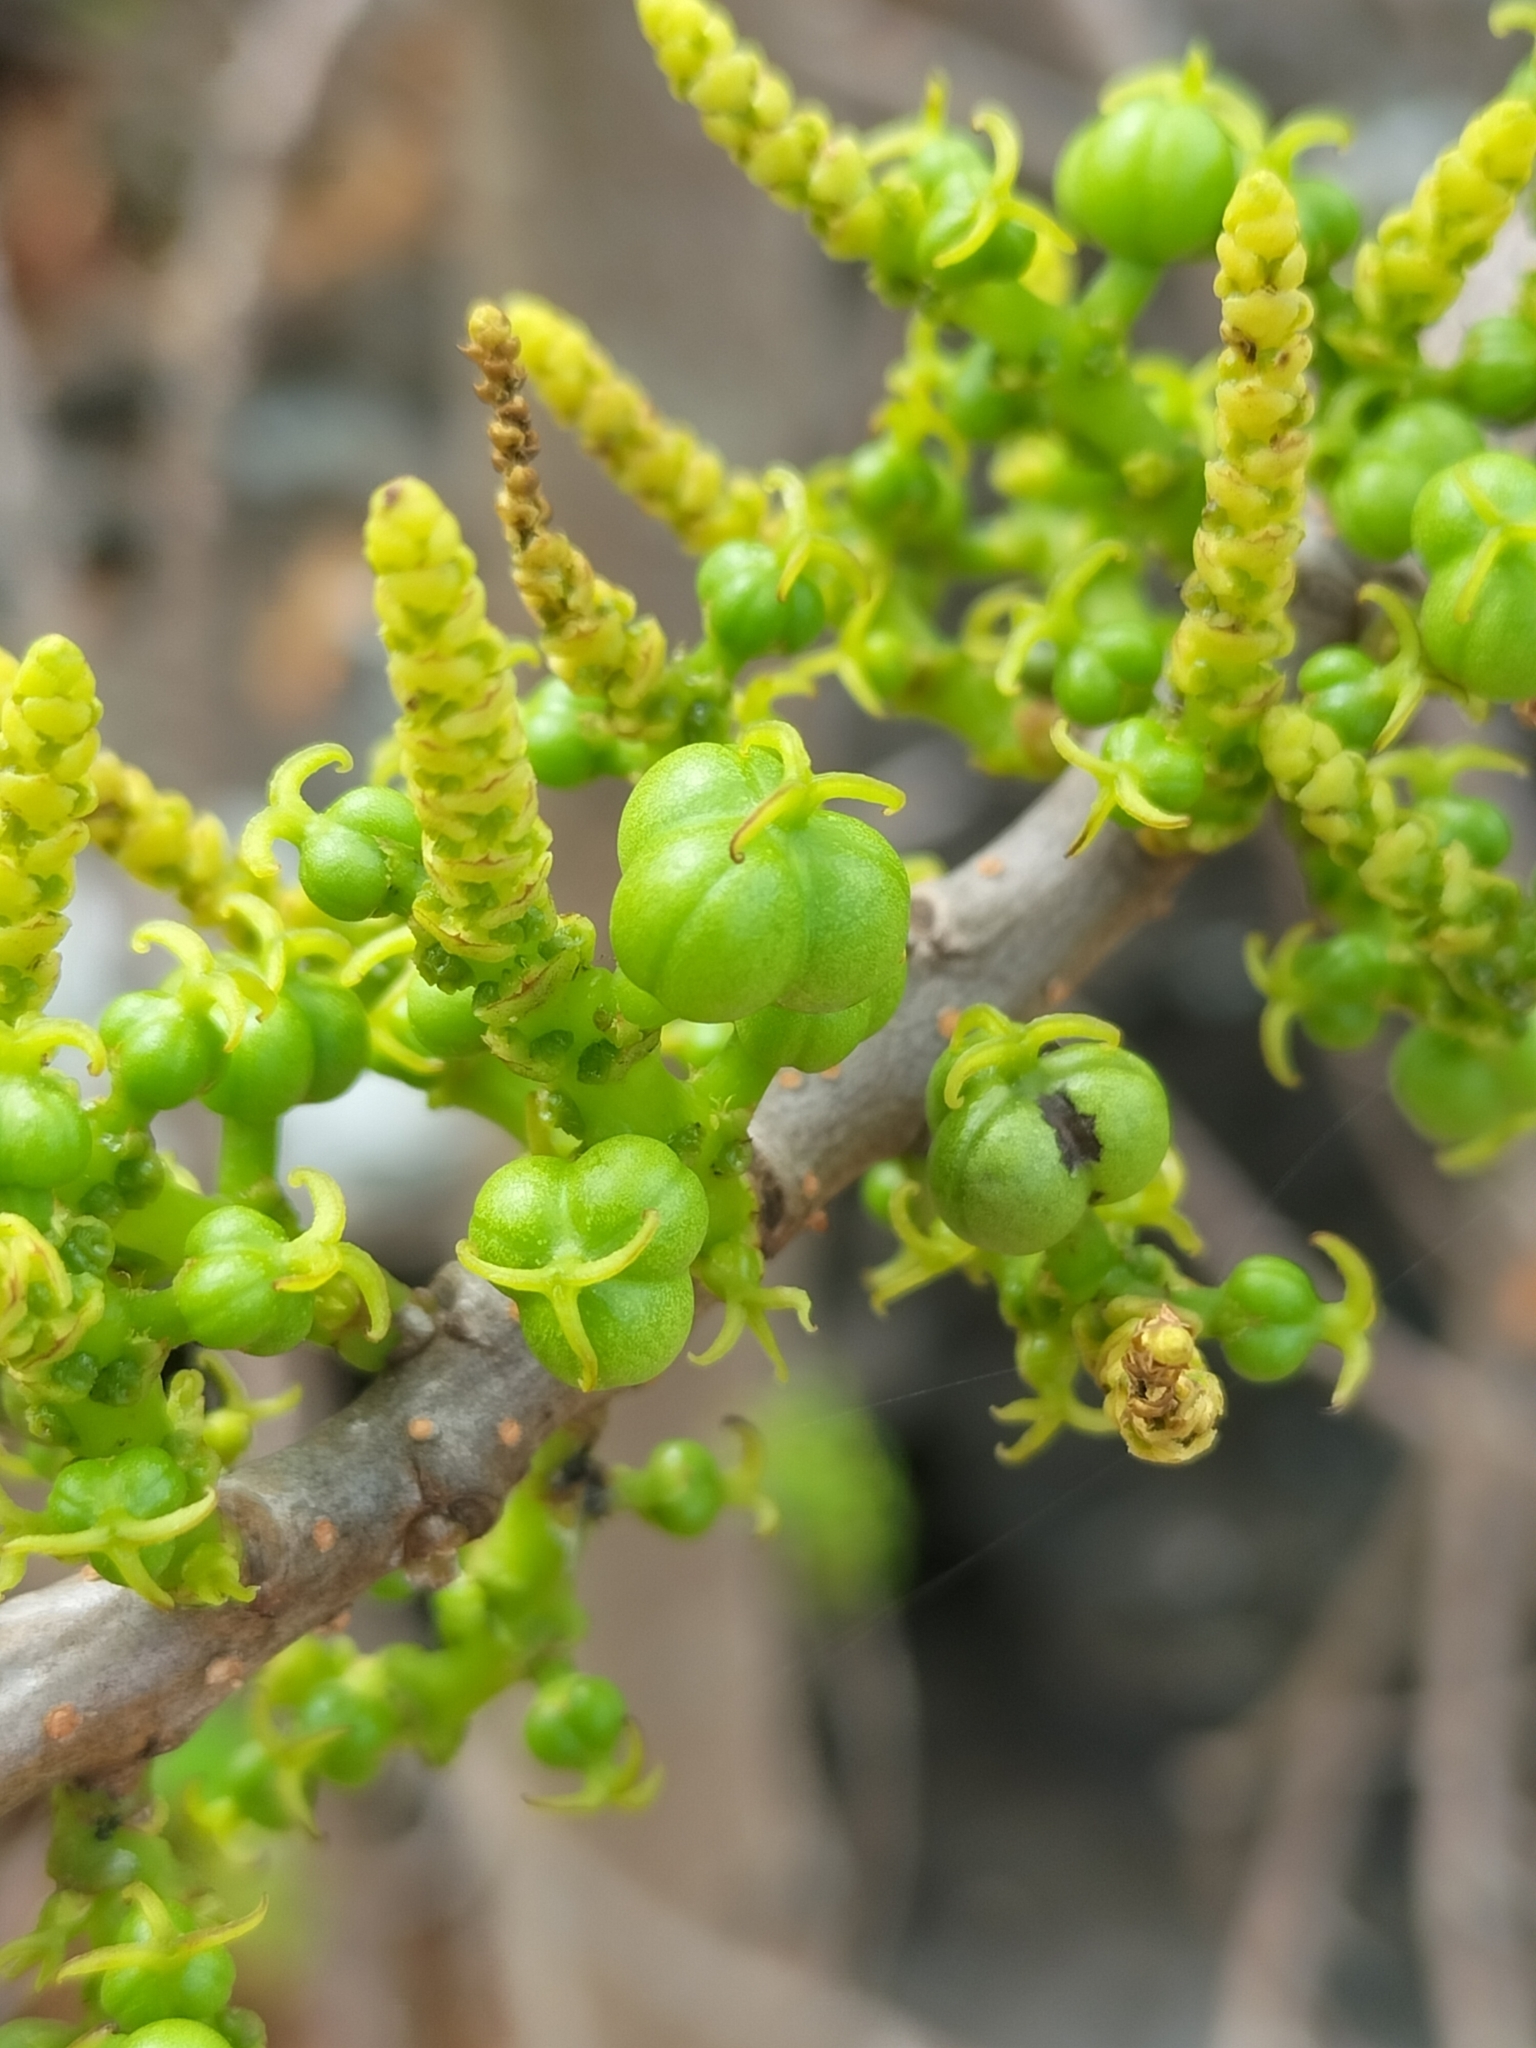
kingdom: Plantae
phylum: Tracheophyta
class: Magnoliopsida
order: Malpighiales
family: Euphorbiaceae
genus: Excoecaria
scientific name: Excoecaria agallocha
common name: River poisontree
